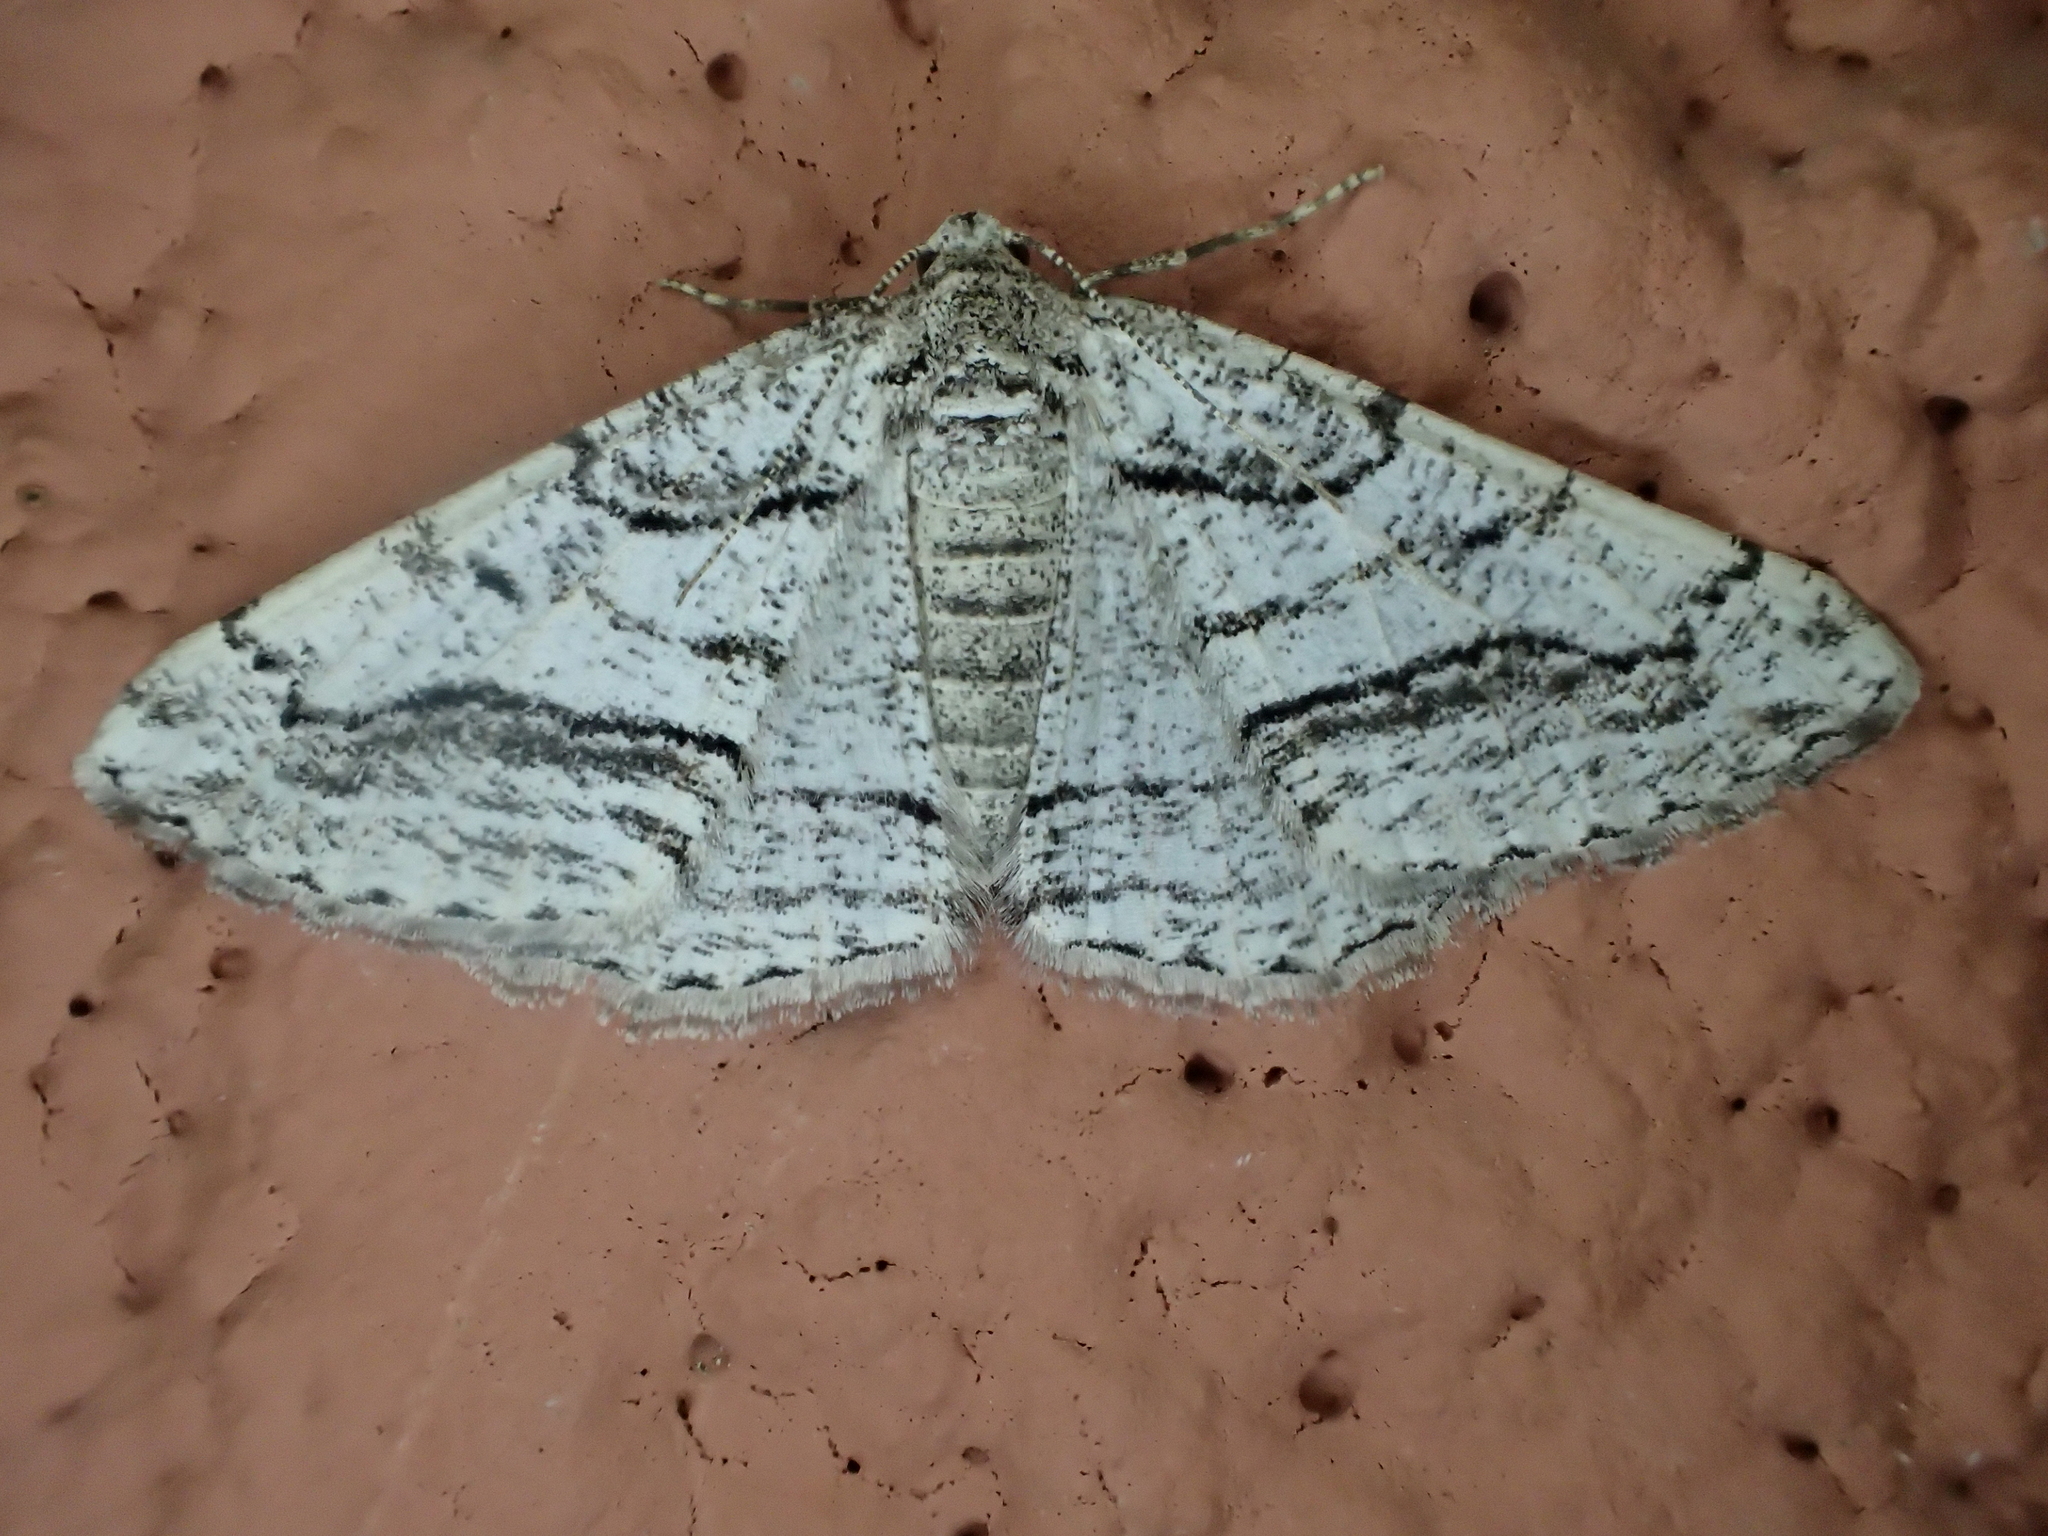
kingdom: Animalia
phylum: Arthropoda
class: Insecta
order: Lepidoptera
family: Geometridae
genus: Calamodes
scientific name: Calamodes occitanaria
